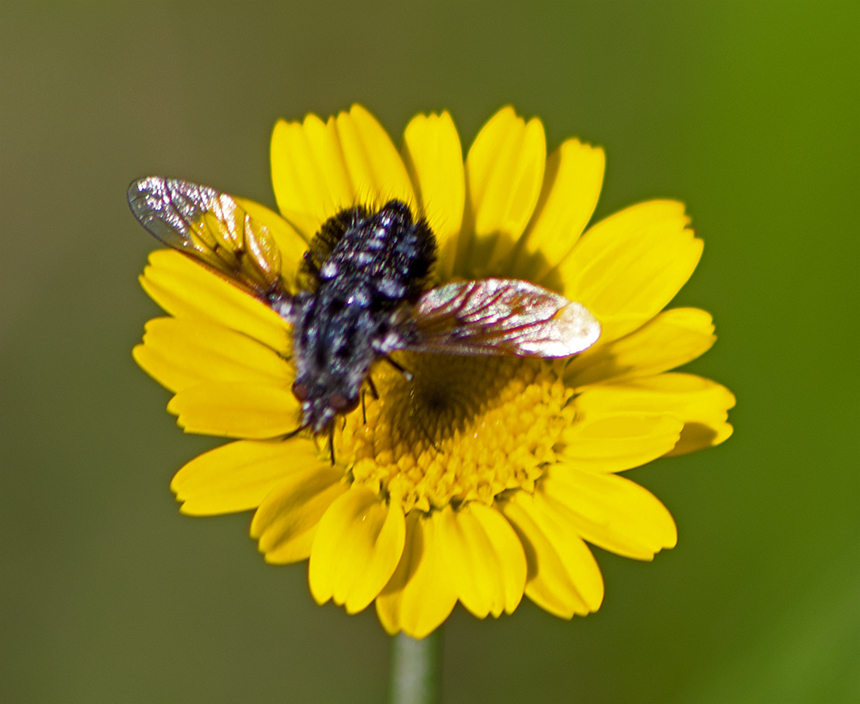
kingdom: Animalia
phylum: Arthropoda
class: Insecta
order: Diptera
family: Bombyliidae
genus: Bombylella
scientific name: Bombylella atra
